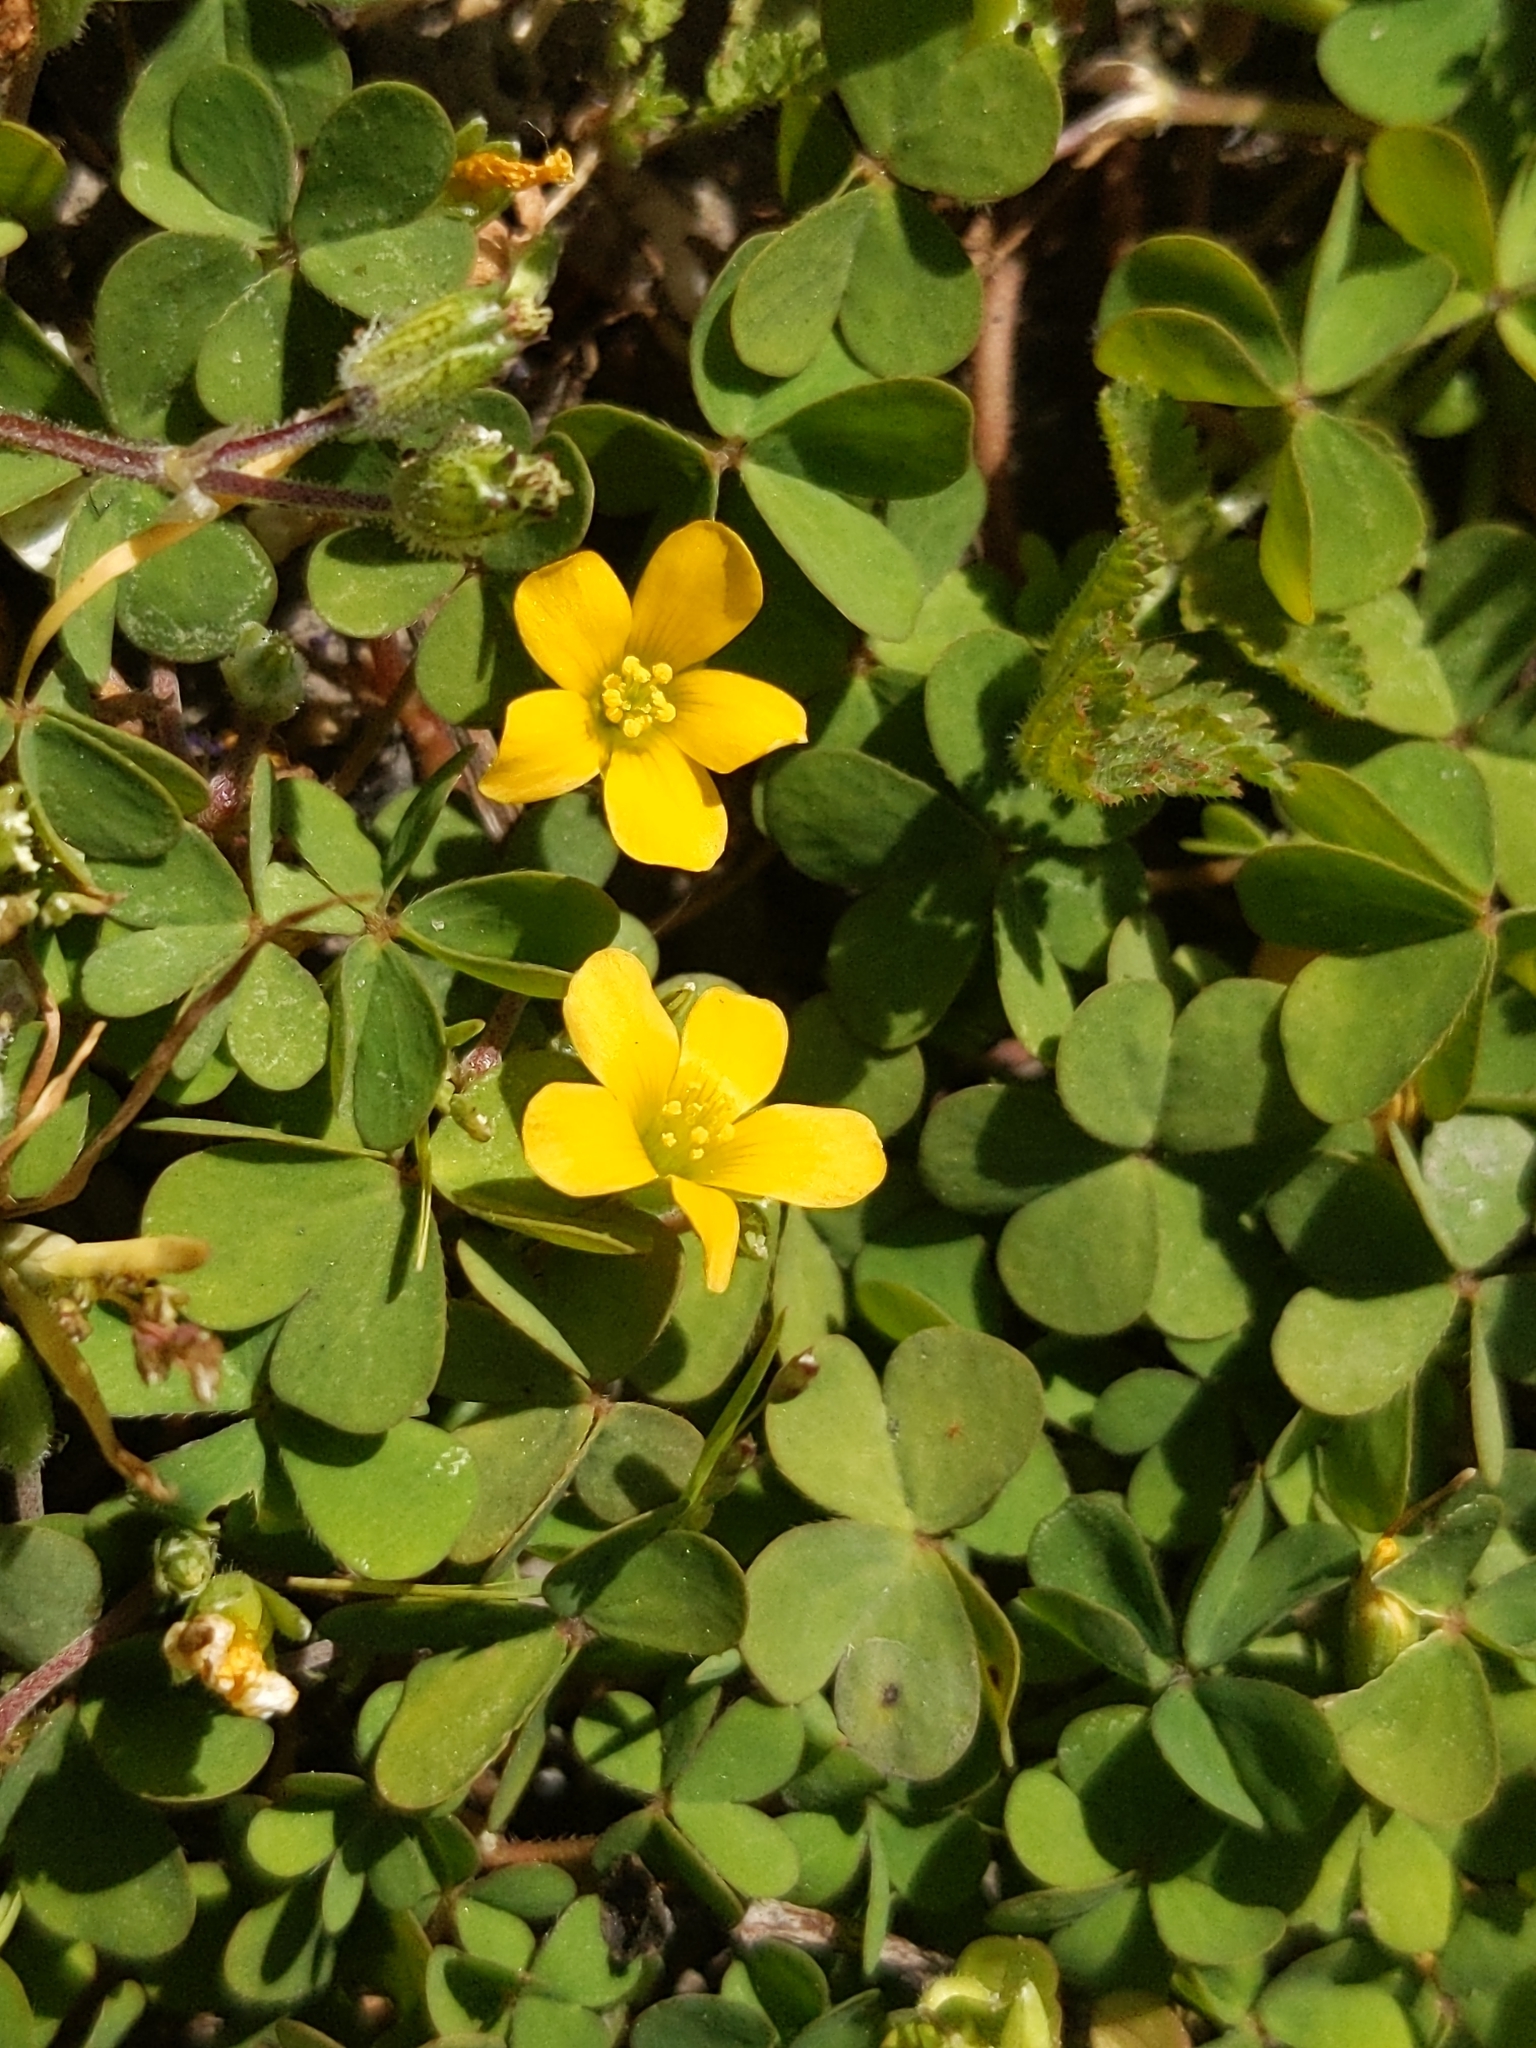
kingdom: Plantae
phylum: Tracheophyta
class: Magnoliopsida
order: Oxalidales
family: Oxalidaceae
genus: Oxalis
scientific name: Oxalis corniculata
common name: Procumbent yellow-sorrel
